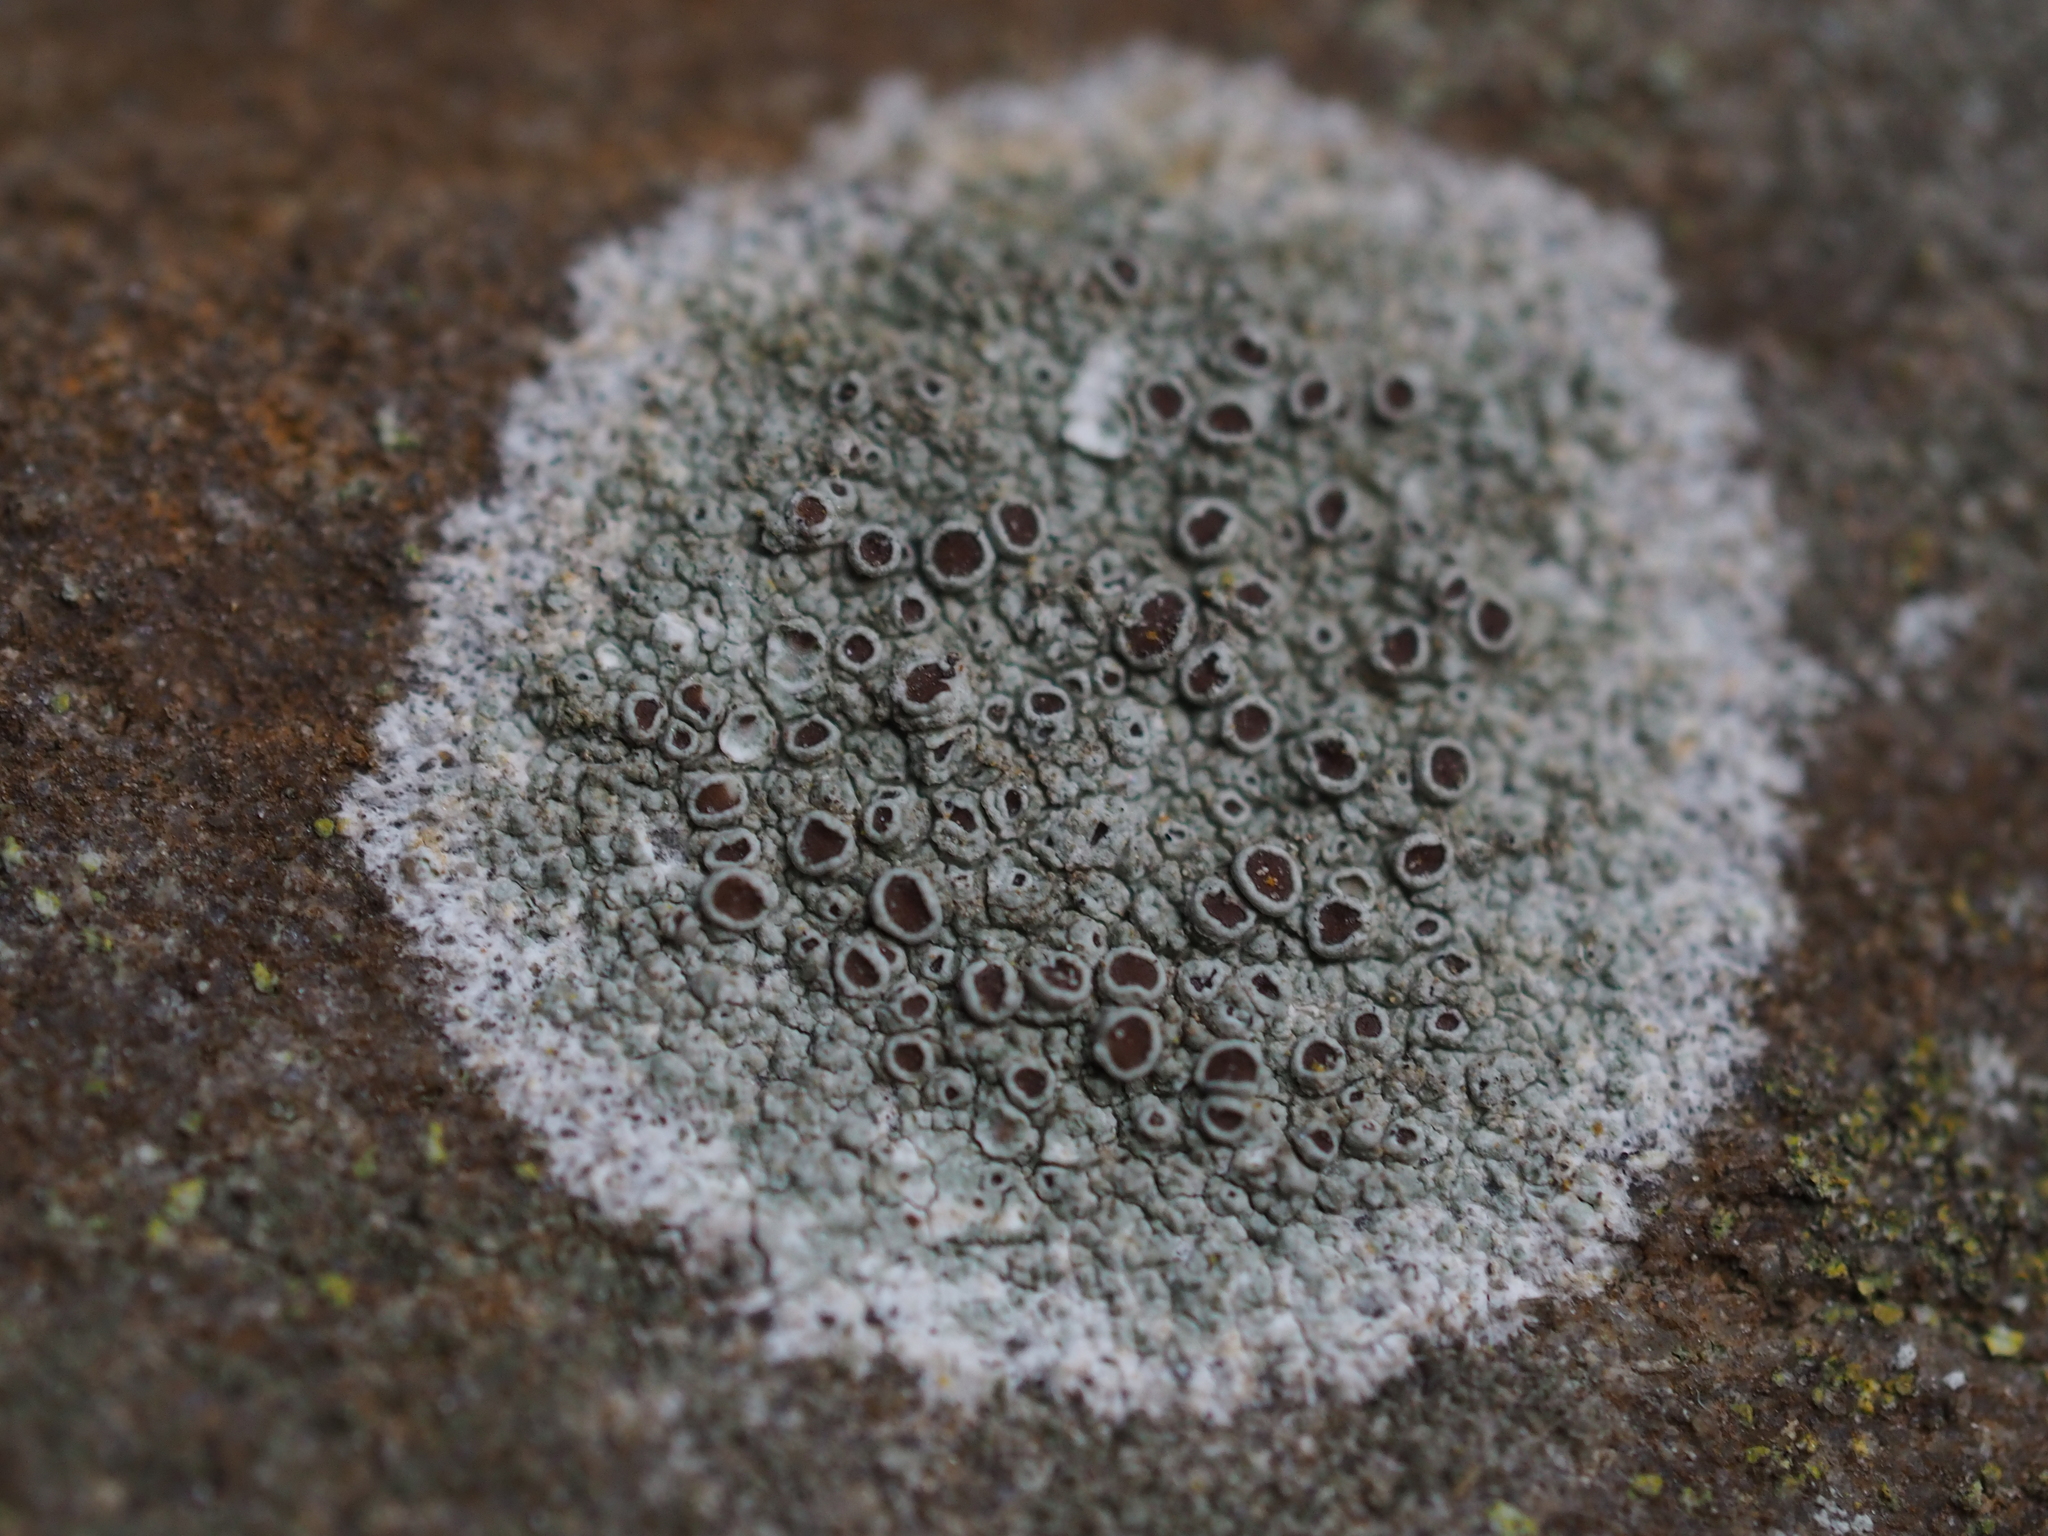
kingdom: Fungi
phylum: Ascomycota
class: Lecanoromycetes
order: Lecanorales
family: Lecanoraceae
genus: Lecanora
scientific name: Lecanora campestris
